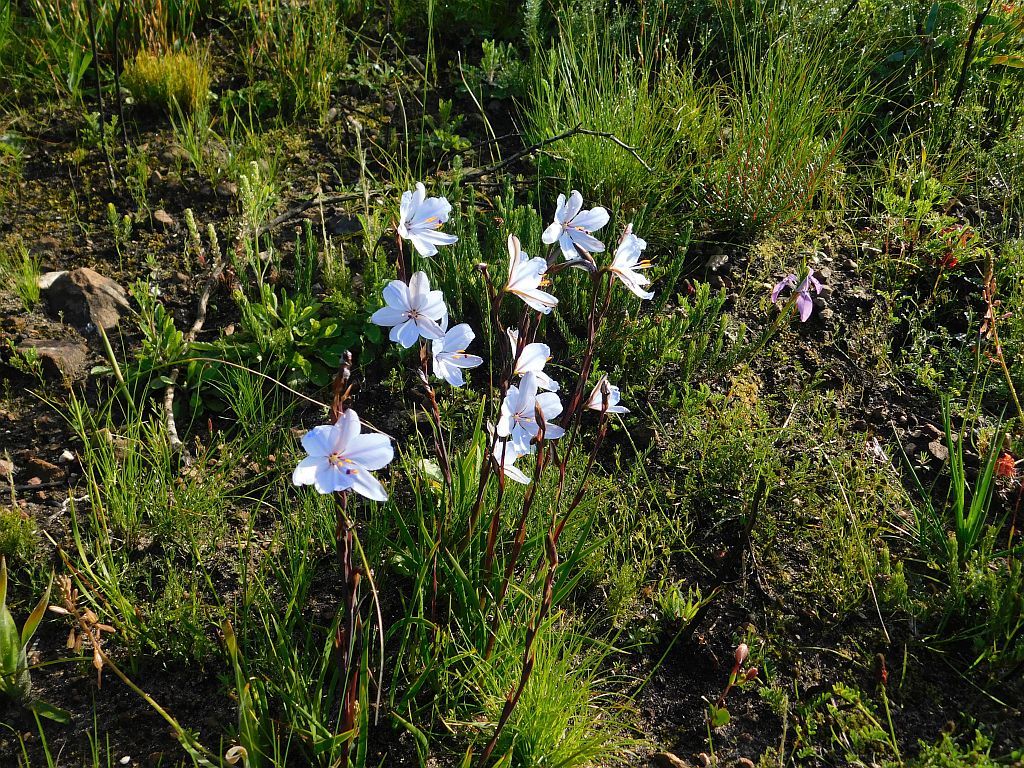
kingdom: Plantae
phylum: Tracheophyta
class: Liliopsida
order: Asparagales
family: Iridaceae
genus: Aristea
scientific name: Aristea spiralis
